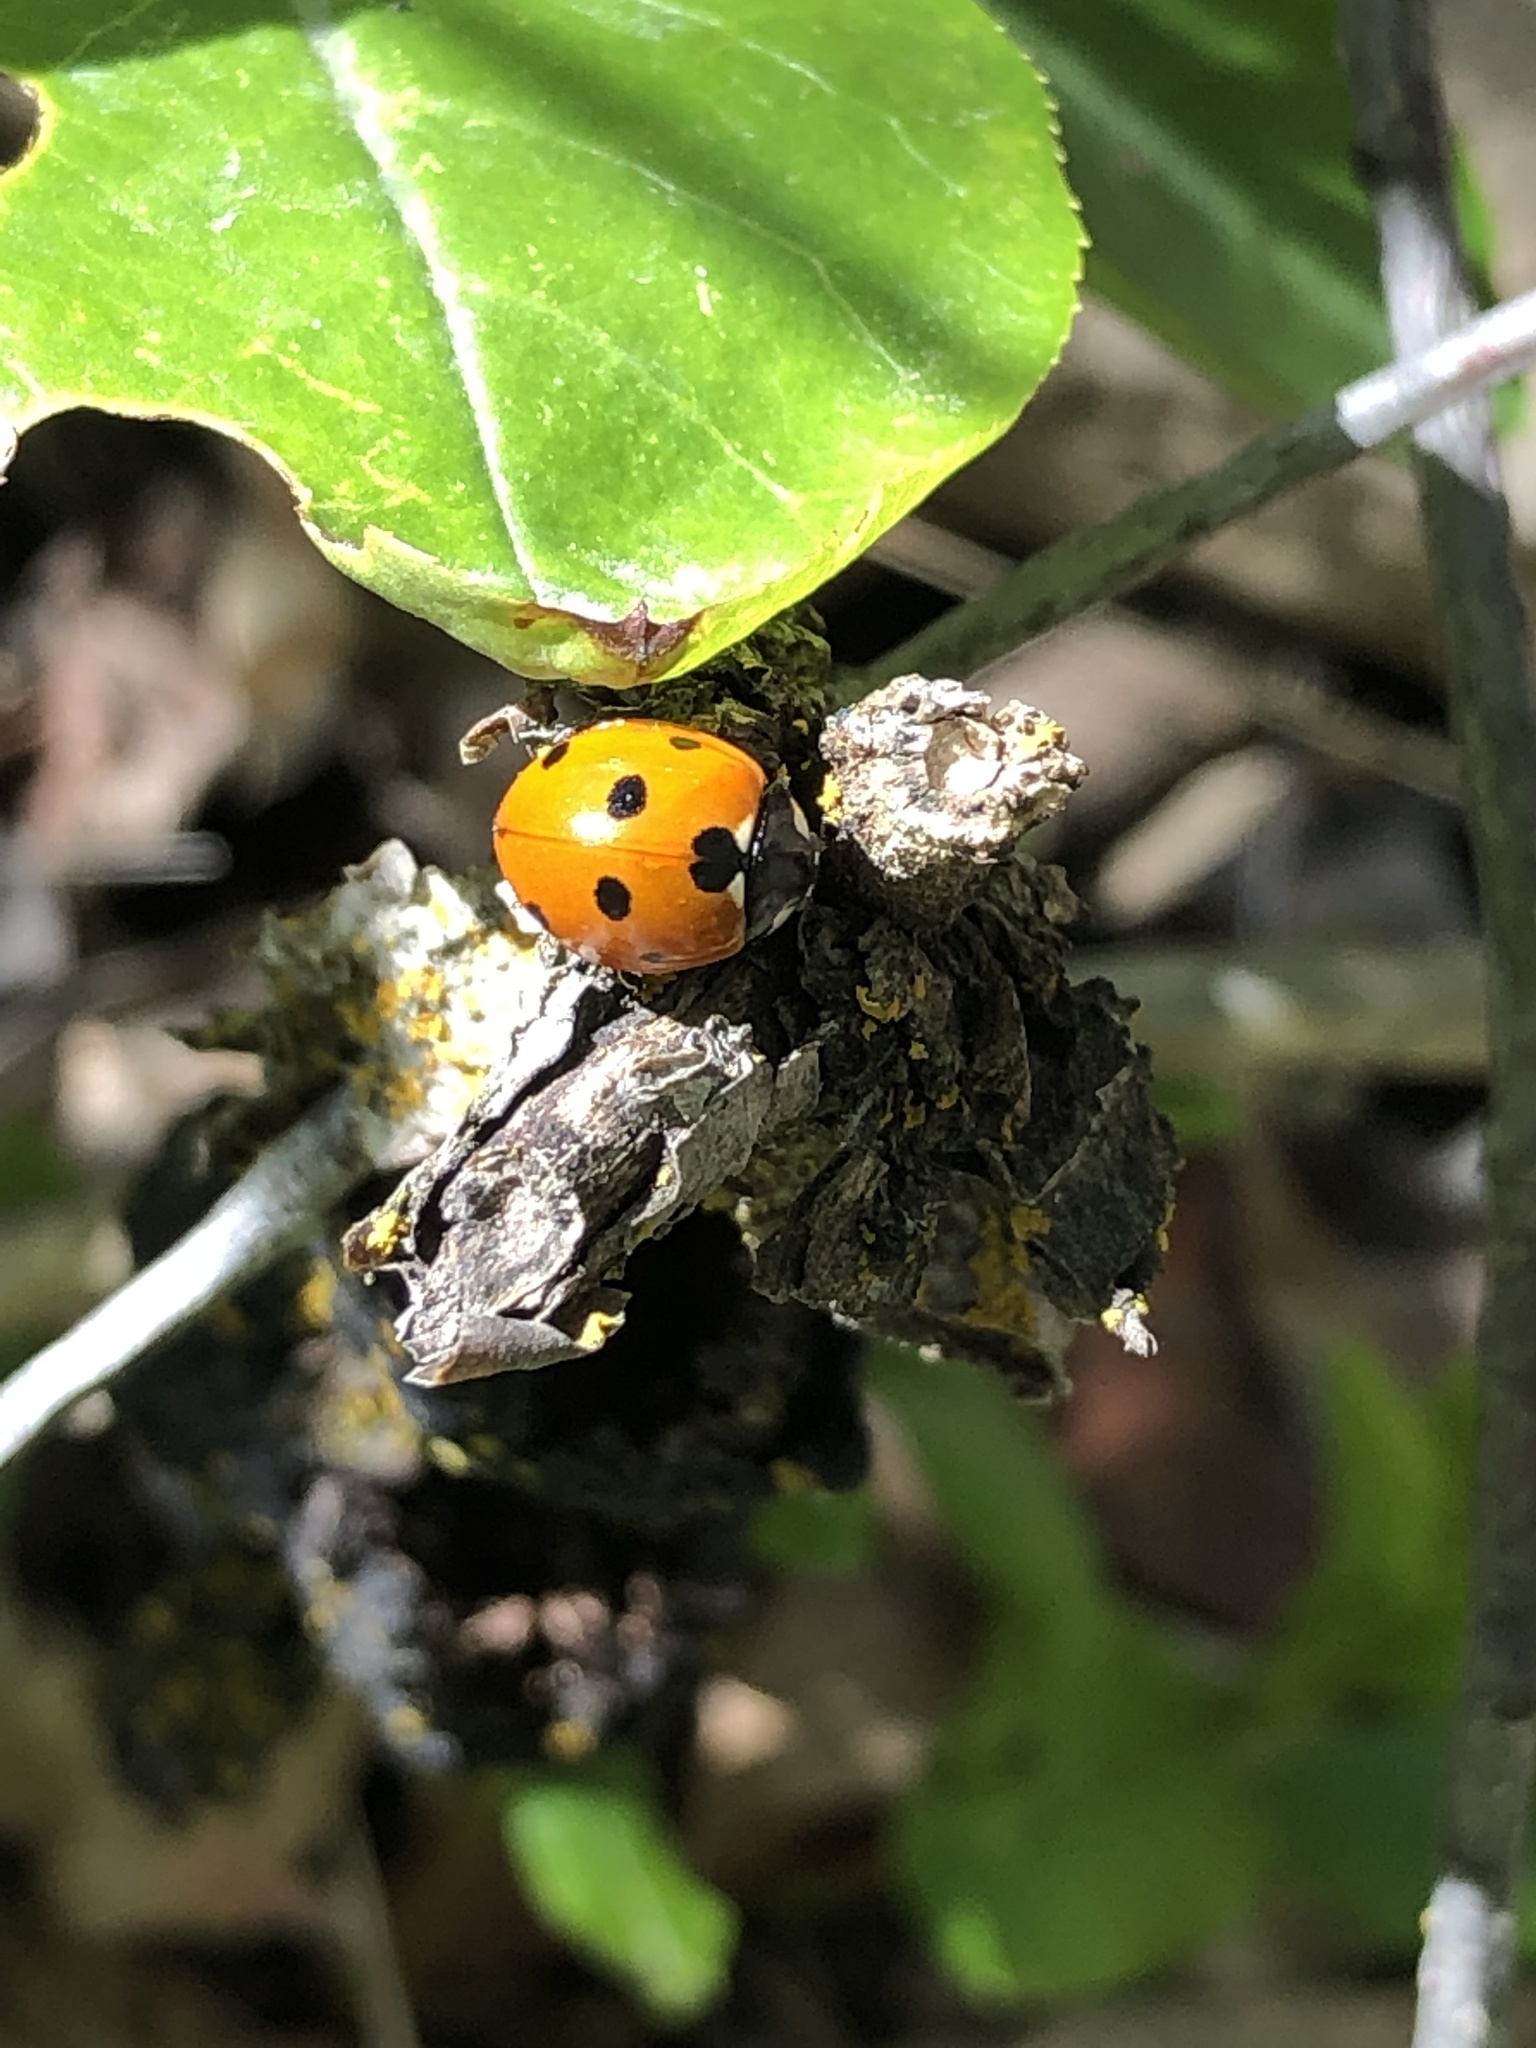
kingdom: Animalia
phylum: Arthropoda
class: Insecta
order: Coleoptera
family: Coccinellidae
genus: Coccinella
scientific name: Coccinella septempunctata
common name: Sevenspotted lady beetle
